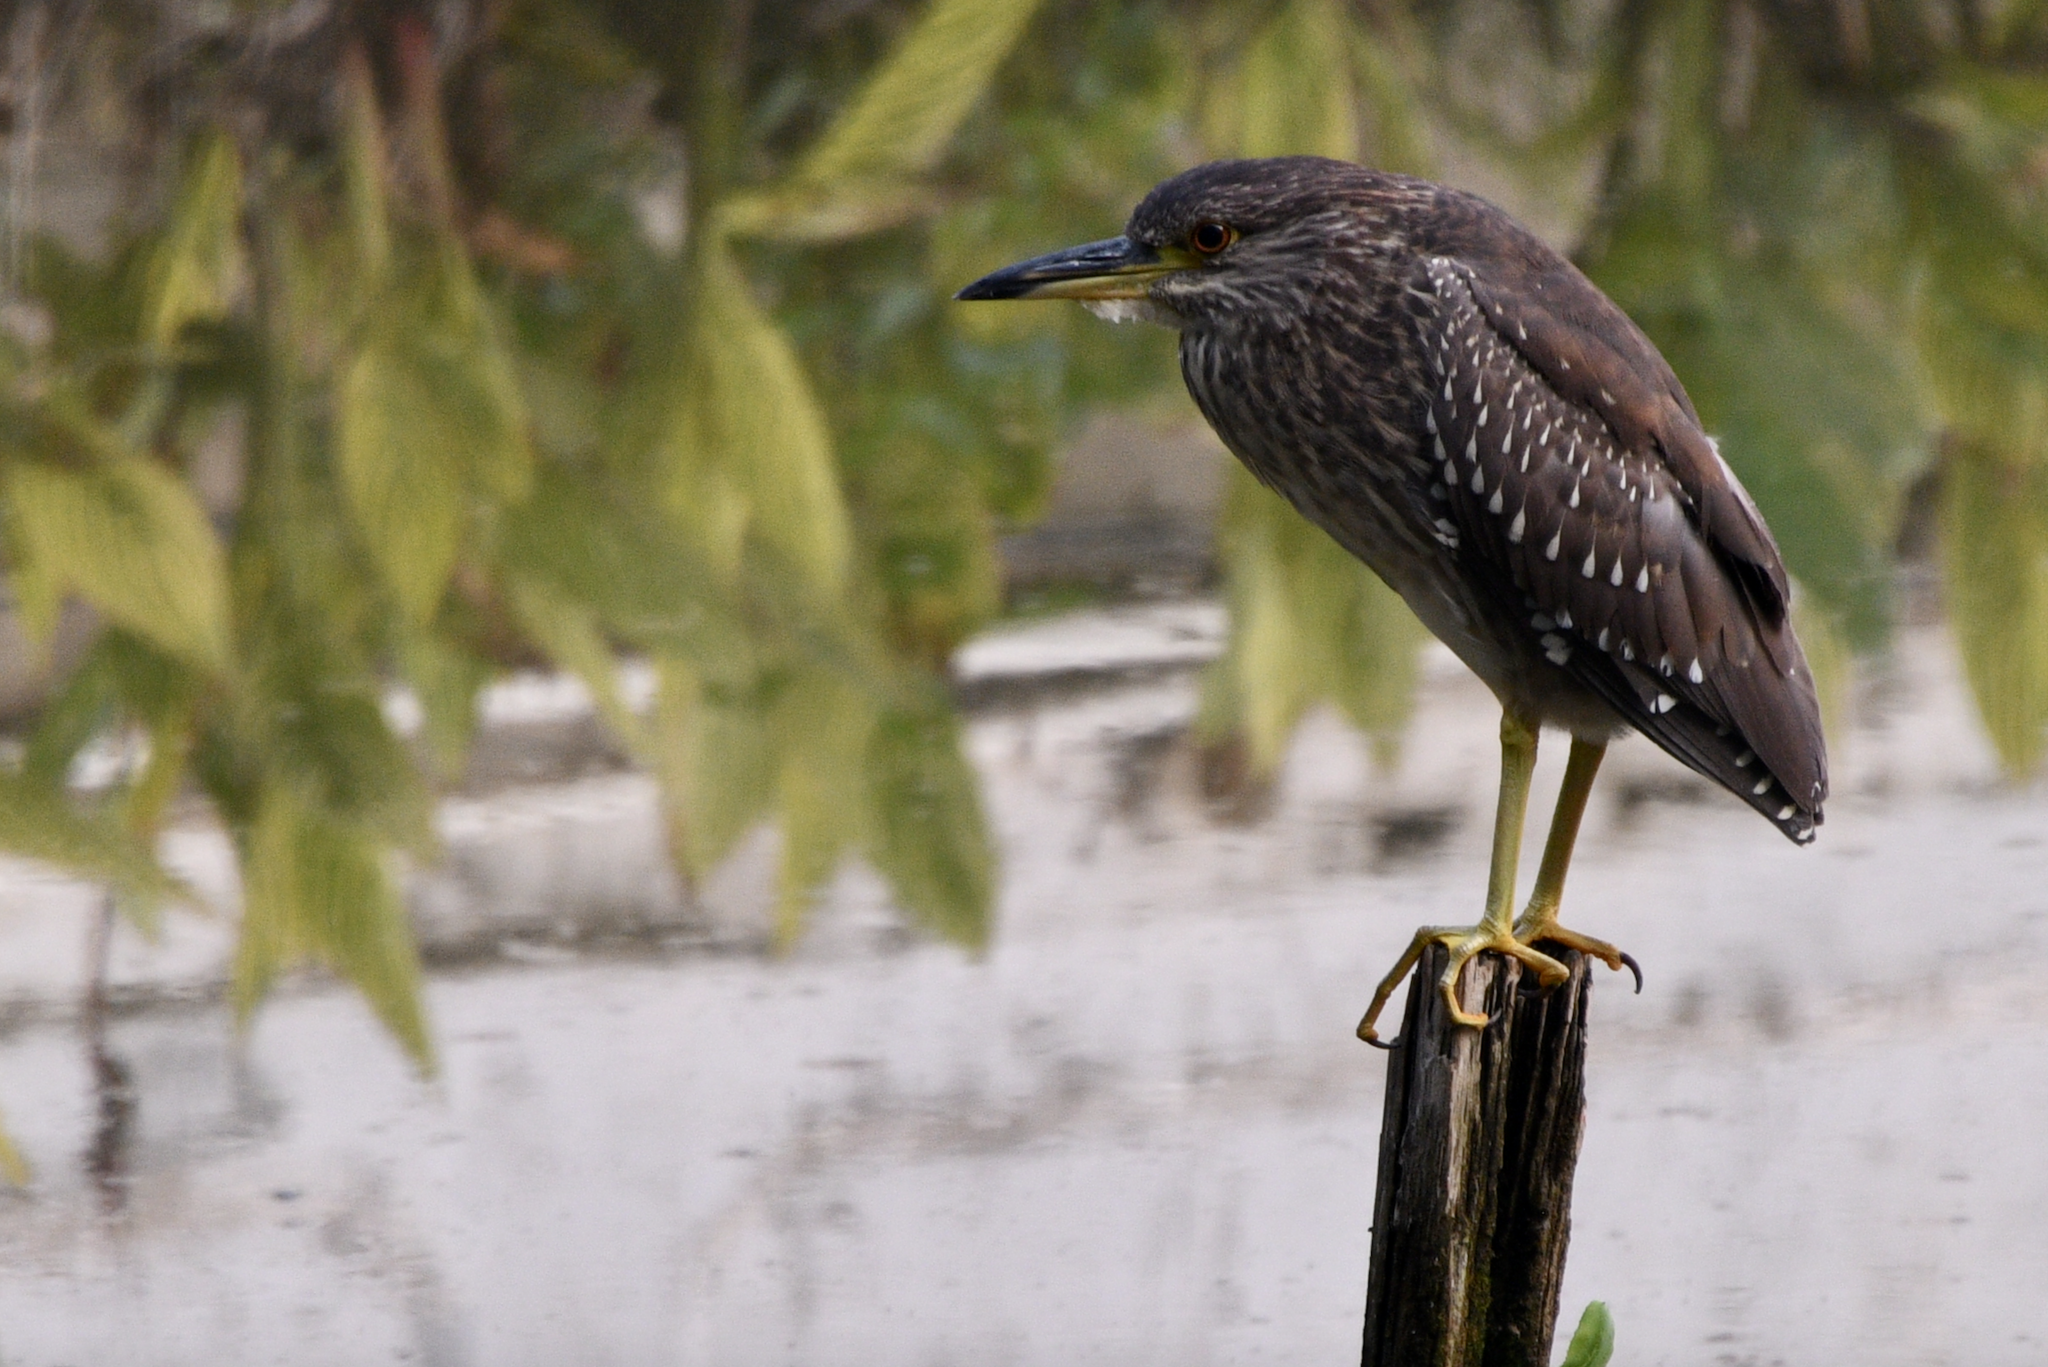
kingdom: Animalia
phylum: Chordata
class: Aves
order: Pelecaniformes
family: Ardeidae
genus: Nycticorax
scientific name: Nycticorax nycticorax
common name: Black-crowned night heron
